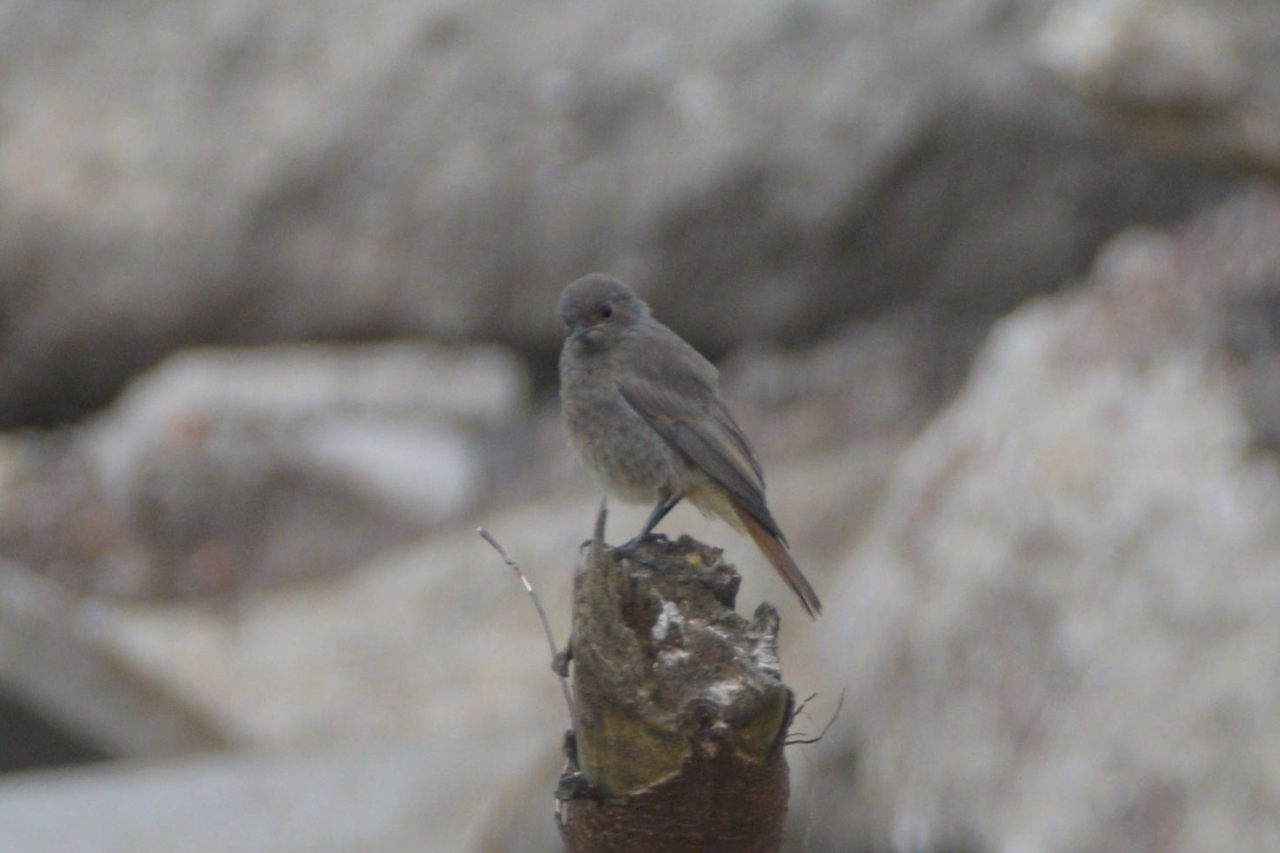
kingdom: Animalia
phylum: Chordata
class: Aves
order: Passeriformes
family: Muscicapidae
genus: Phoenicurus
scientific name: Phoenicurus ochruros
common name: Black redstart
